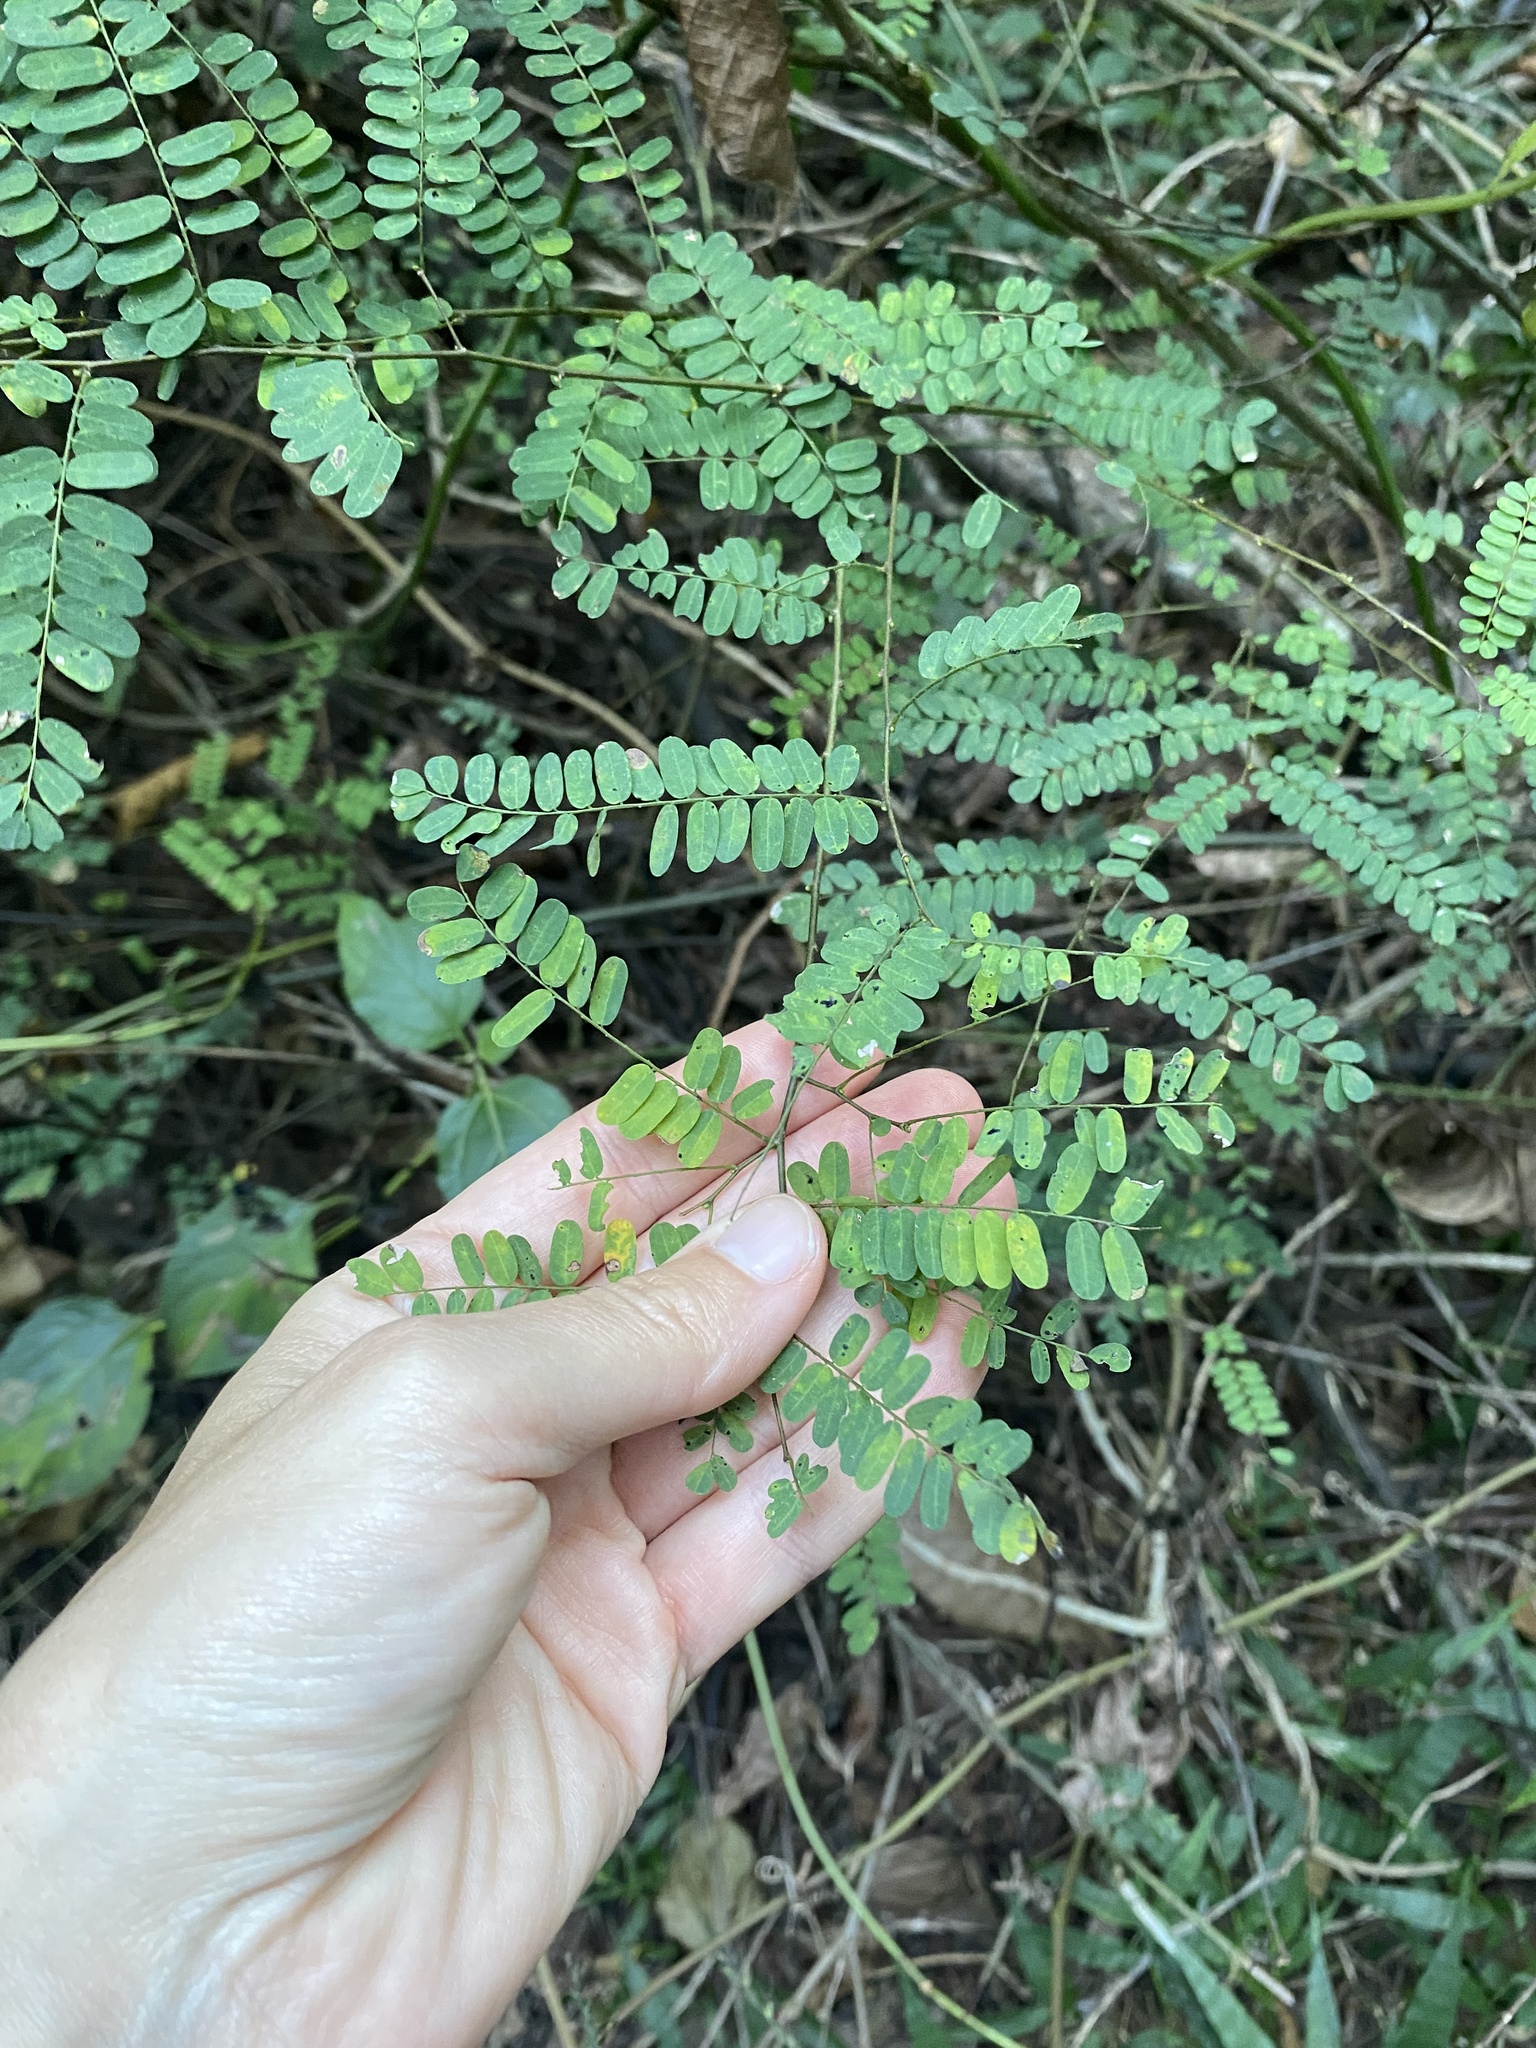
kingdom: Plantae
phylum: Tracheophyta
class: Magnoliopsida
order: Fabales
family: Fabaceae
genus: Dalbergia
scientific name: Dalbergia armata
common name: Hluhluwe climber
